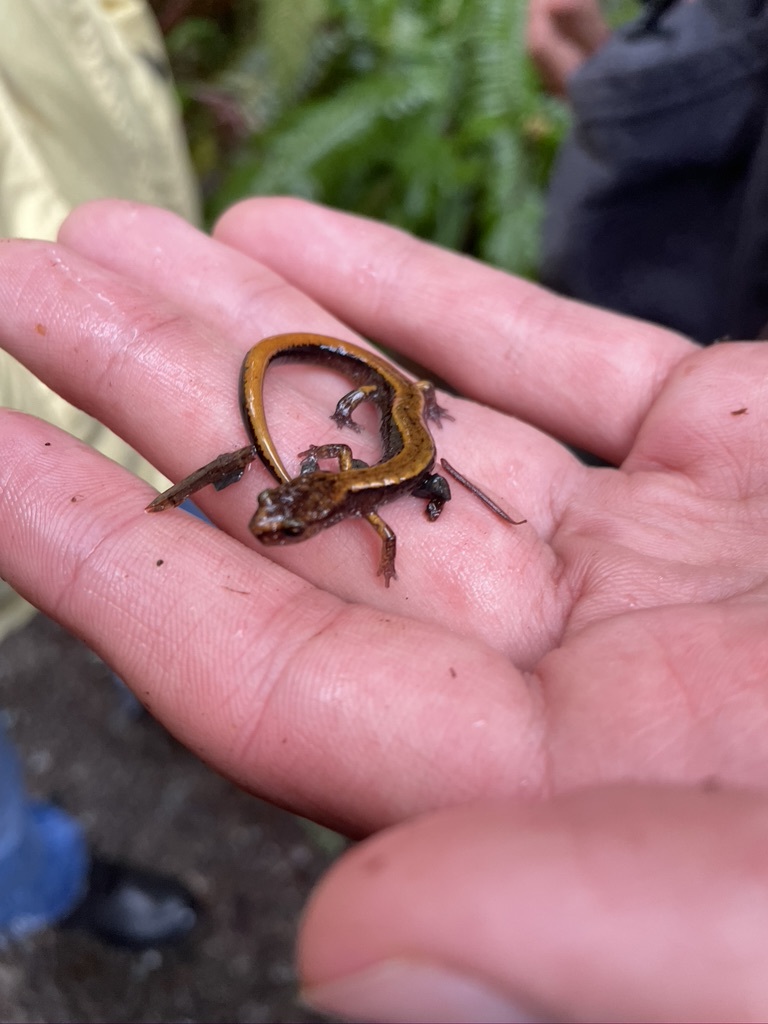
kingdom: Animalia
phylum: Chordata
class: Amphibia
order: Caudata
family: Plethodontidae
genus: Plethodon
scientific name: Plethodon vehiculum
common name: Western red-backed salamander
